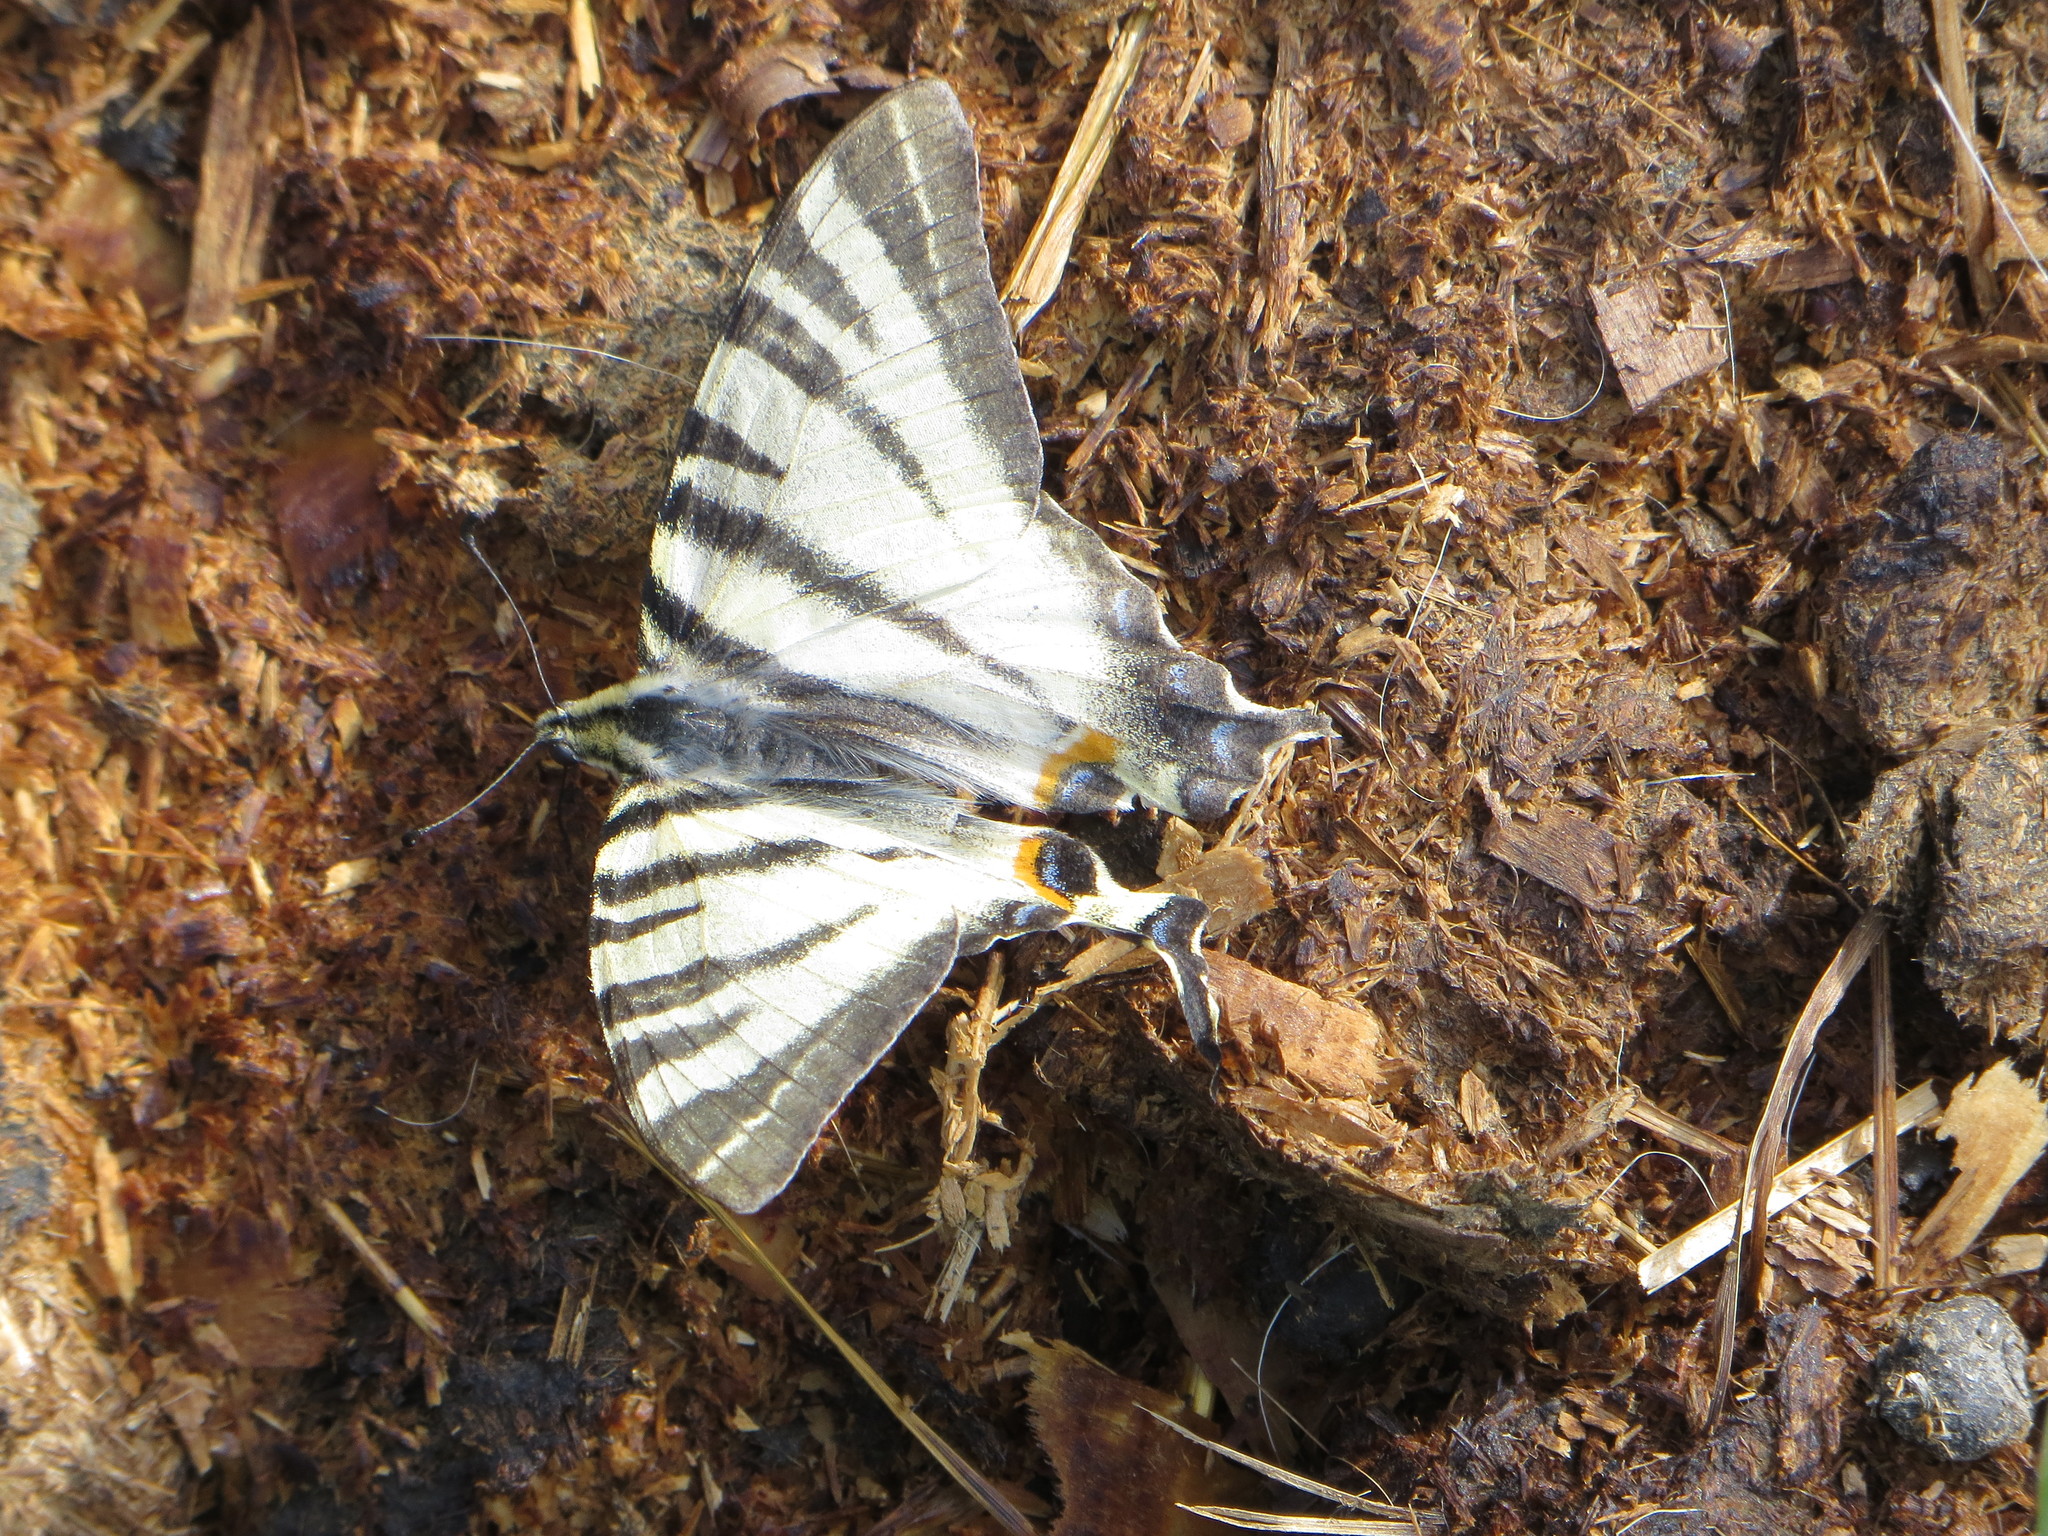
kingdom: Animalia
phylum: Arthropoda
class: Insecta
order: Lepidoptera
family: Papilionidae
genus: Iphiclides
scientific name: Iphiclides podalirius
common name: Scarce swallowtail
